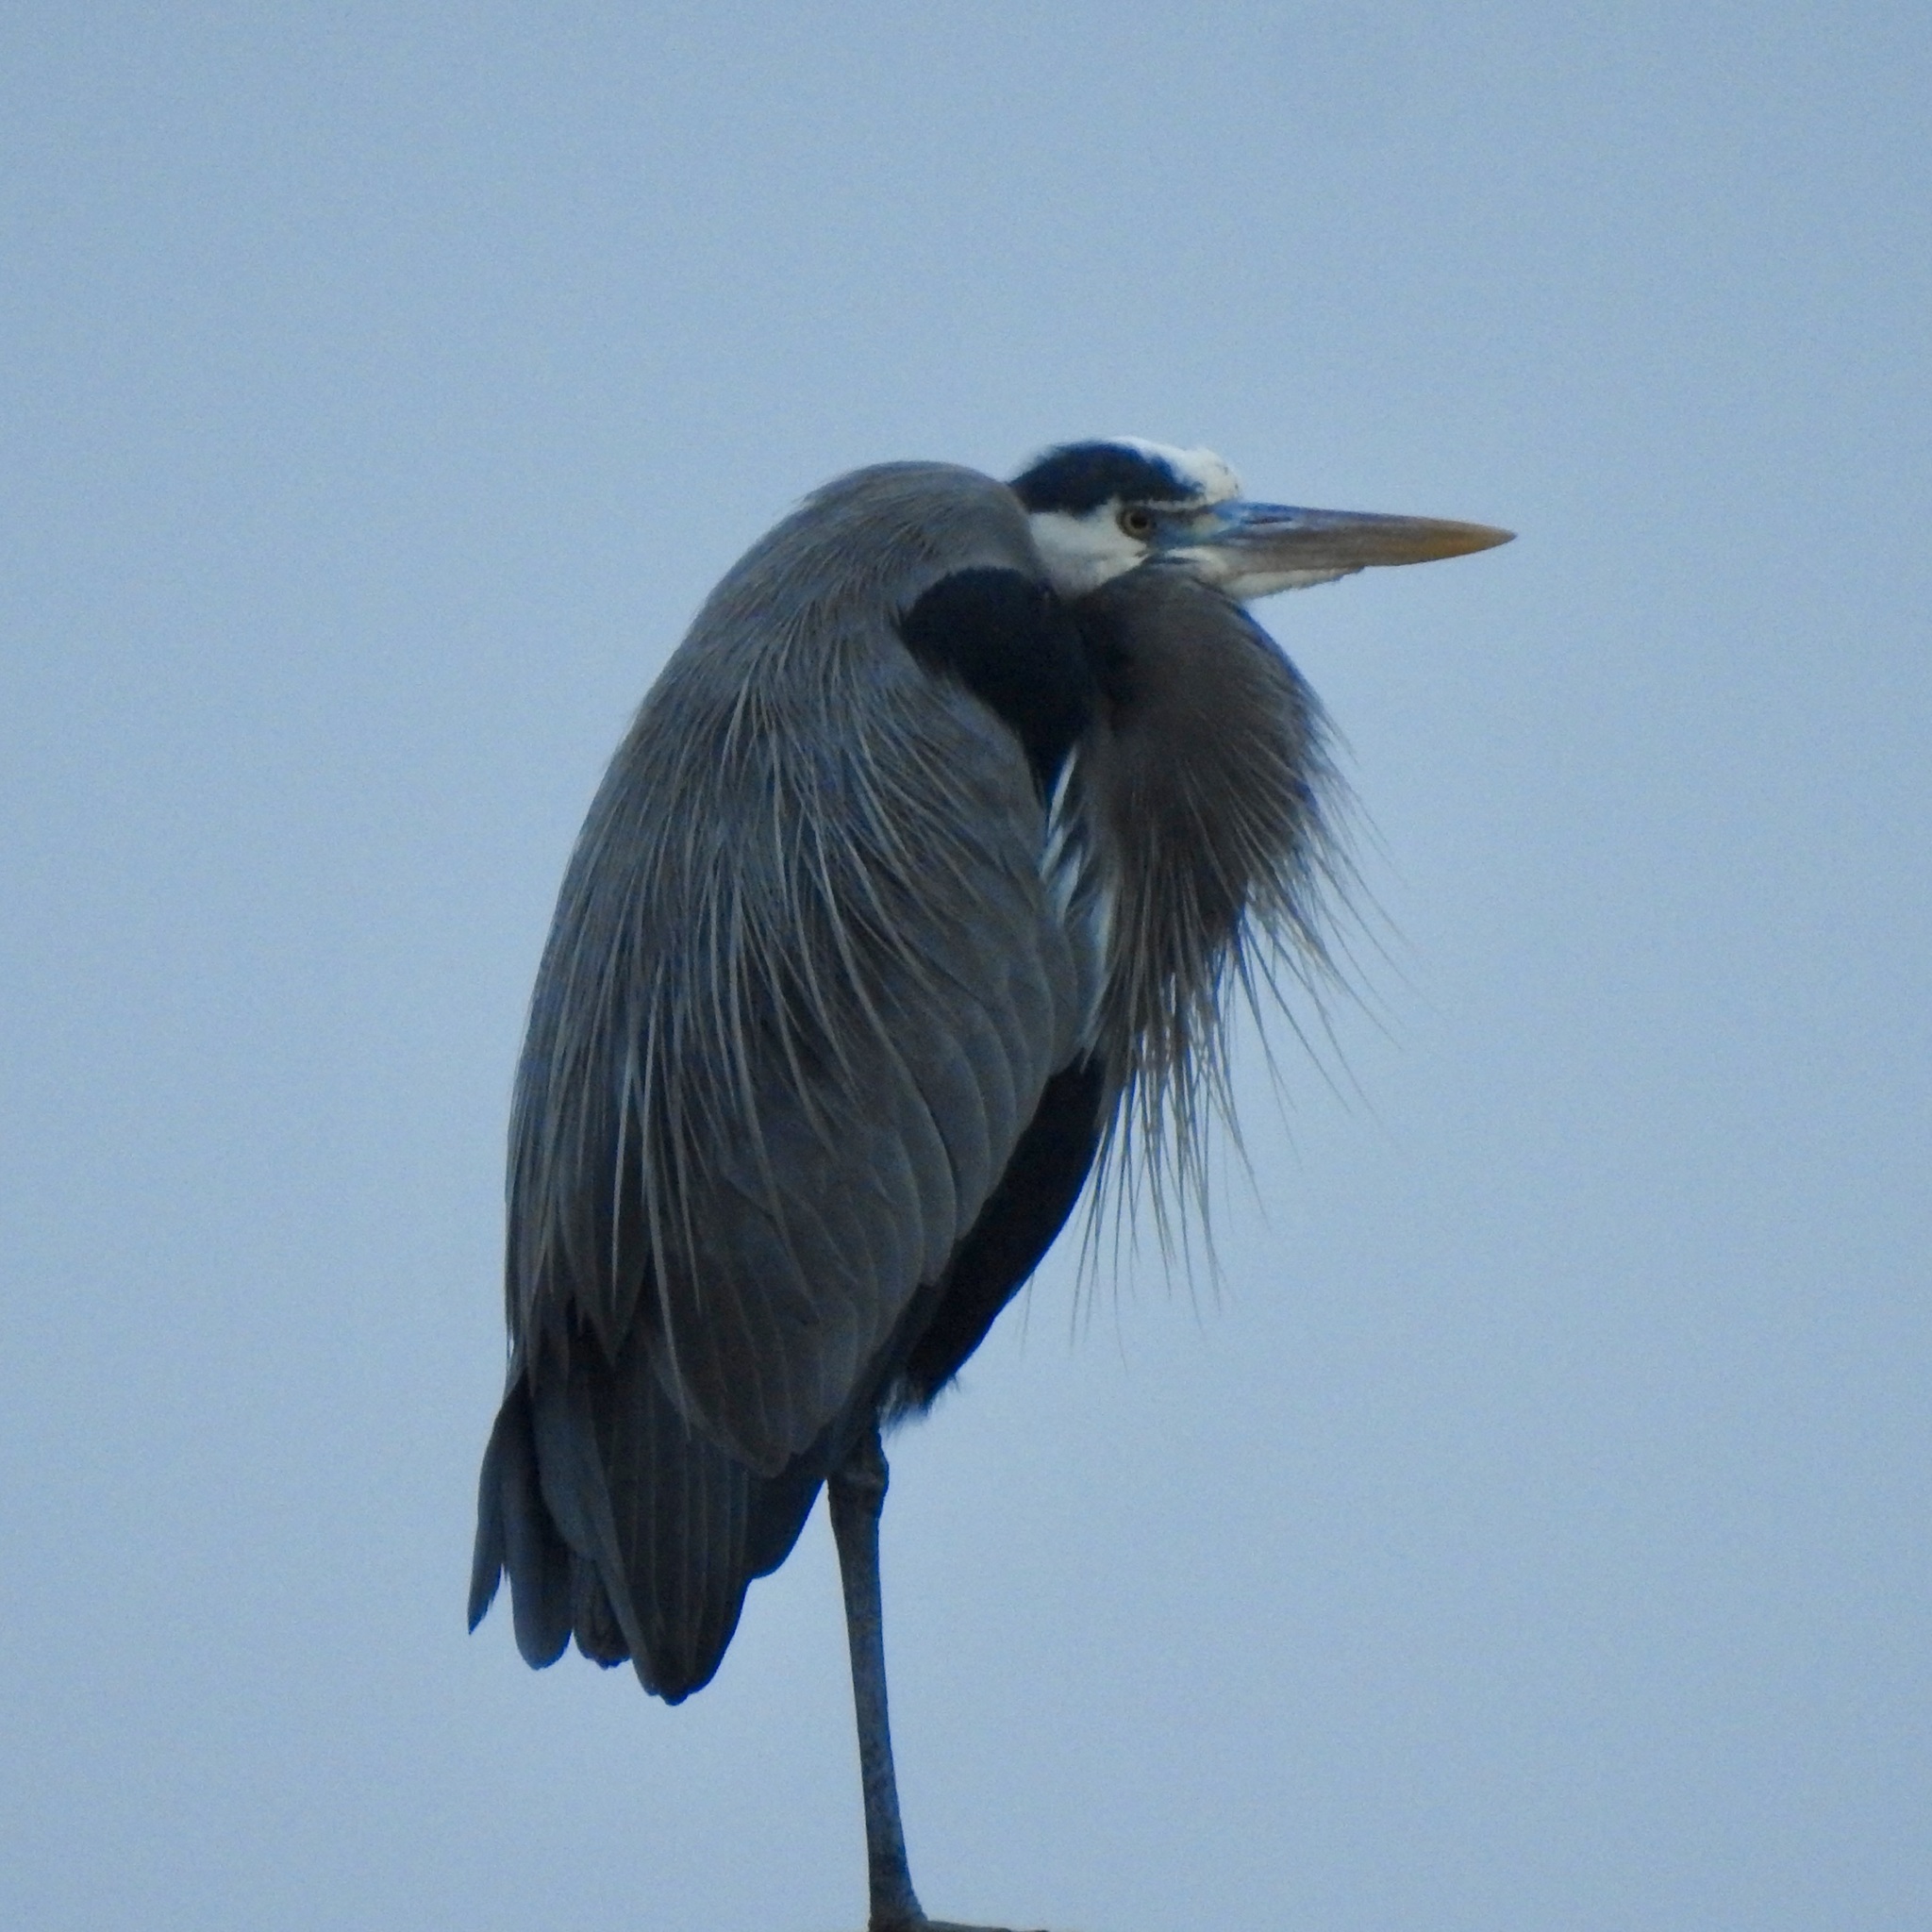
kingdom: Animalia
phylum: Chordata
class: Aves
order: Pelecaniformes
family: Ardeidae
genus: Ardea
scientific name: Ardea herodias
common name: Great blue heron
